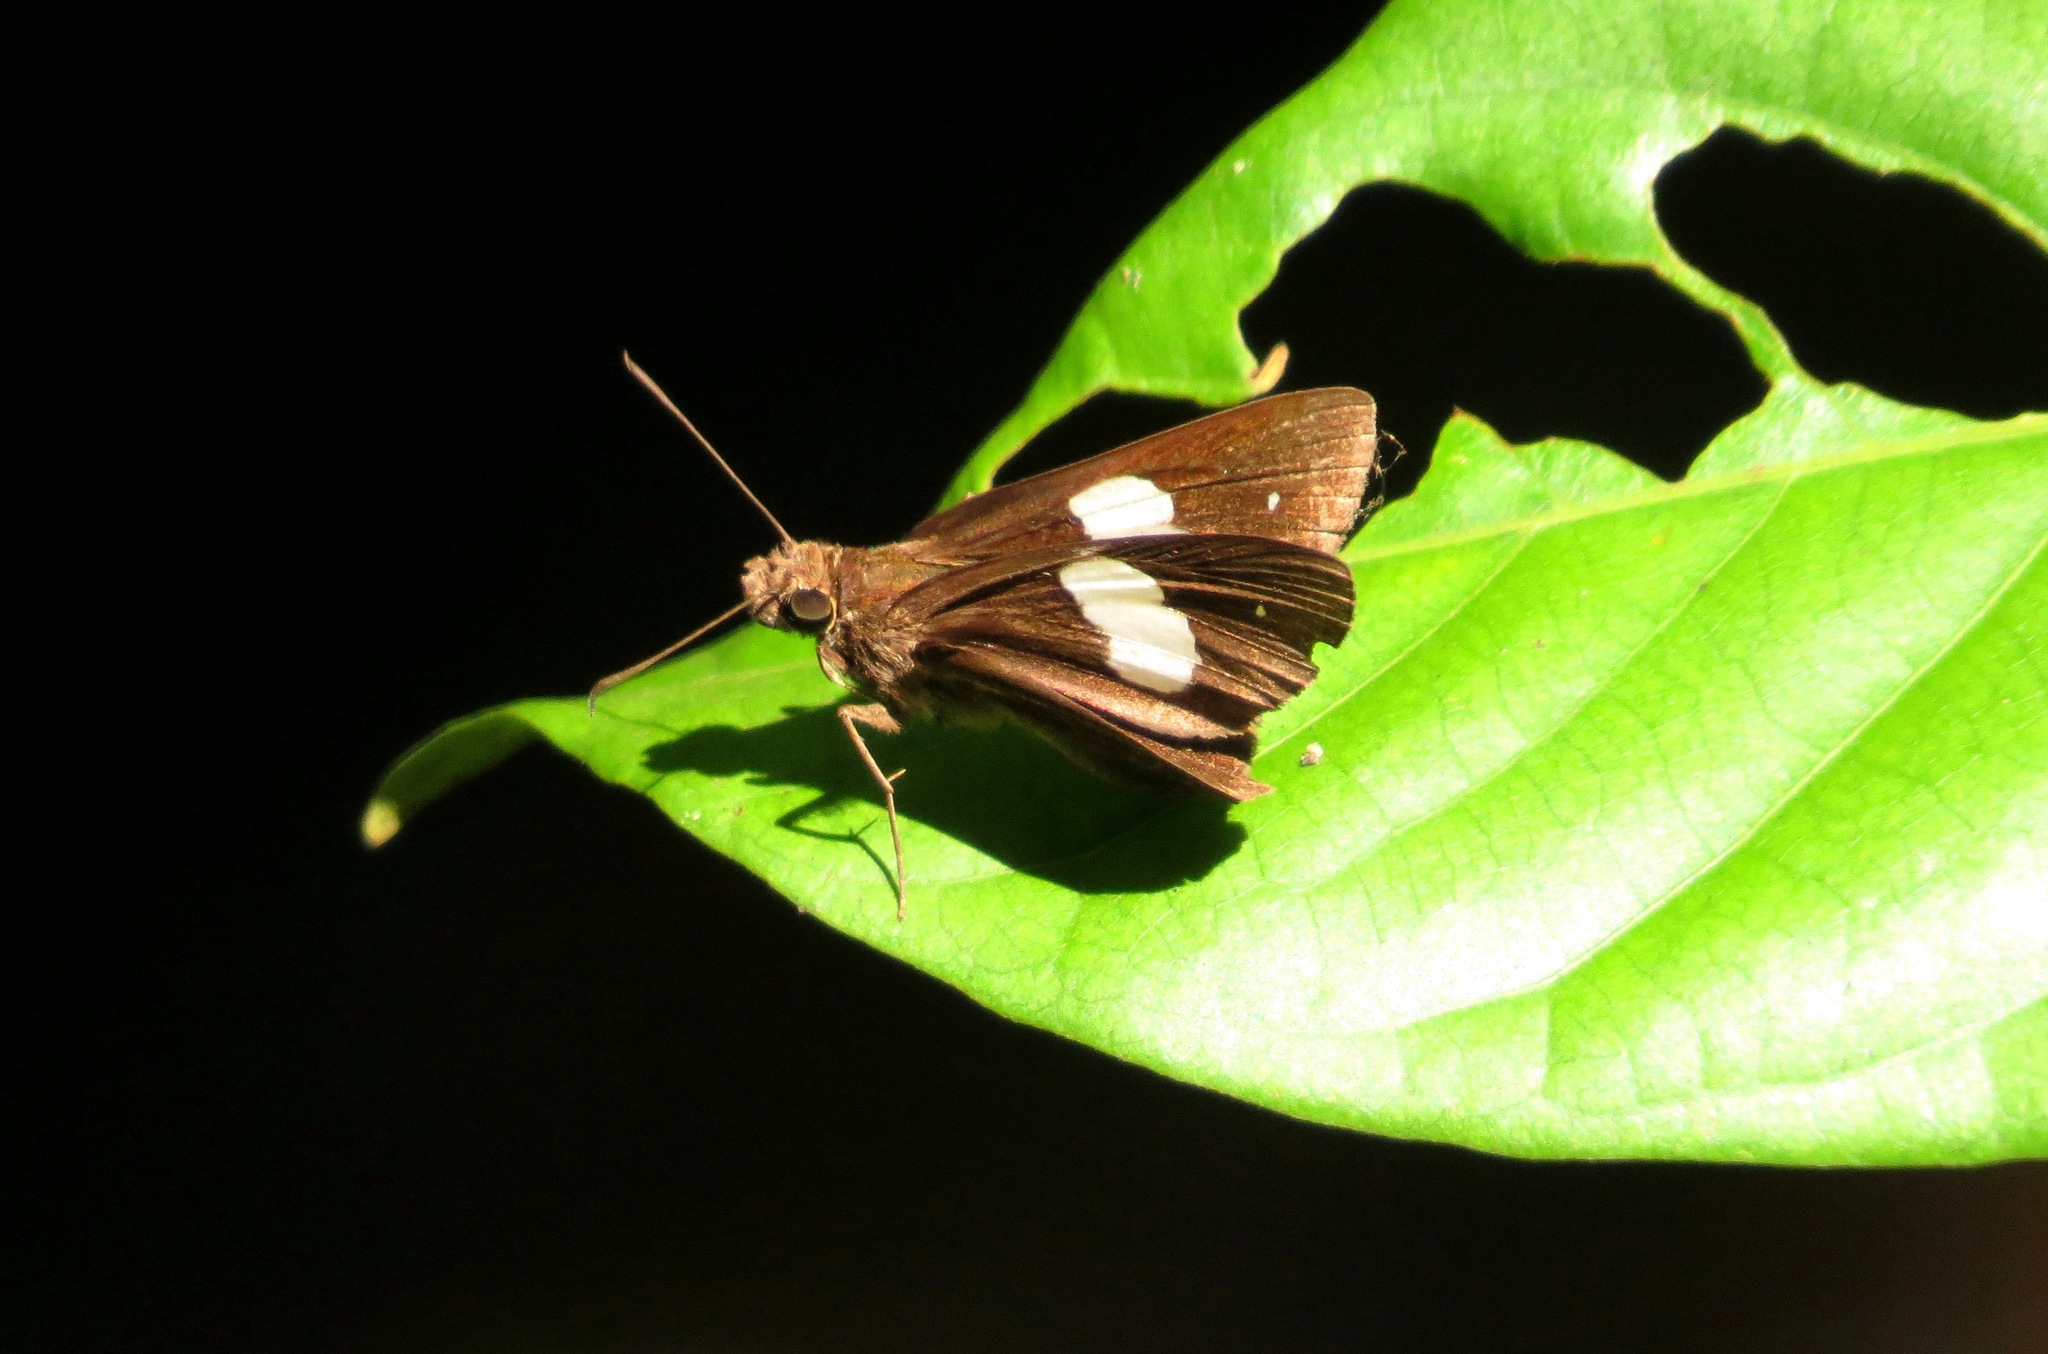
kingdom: Animalia
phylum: Arthropoda
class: Insecta
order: Lepidoptera
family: Hesperiidae
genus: Notocrypta
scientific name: Notocrypta paralysos
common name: Common banded demon
